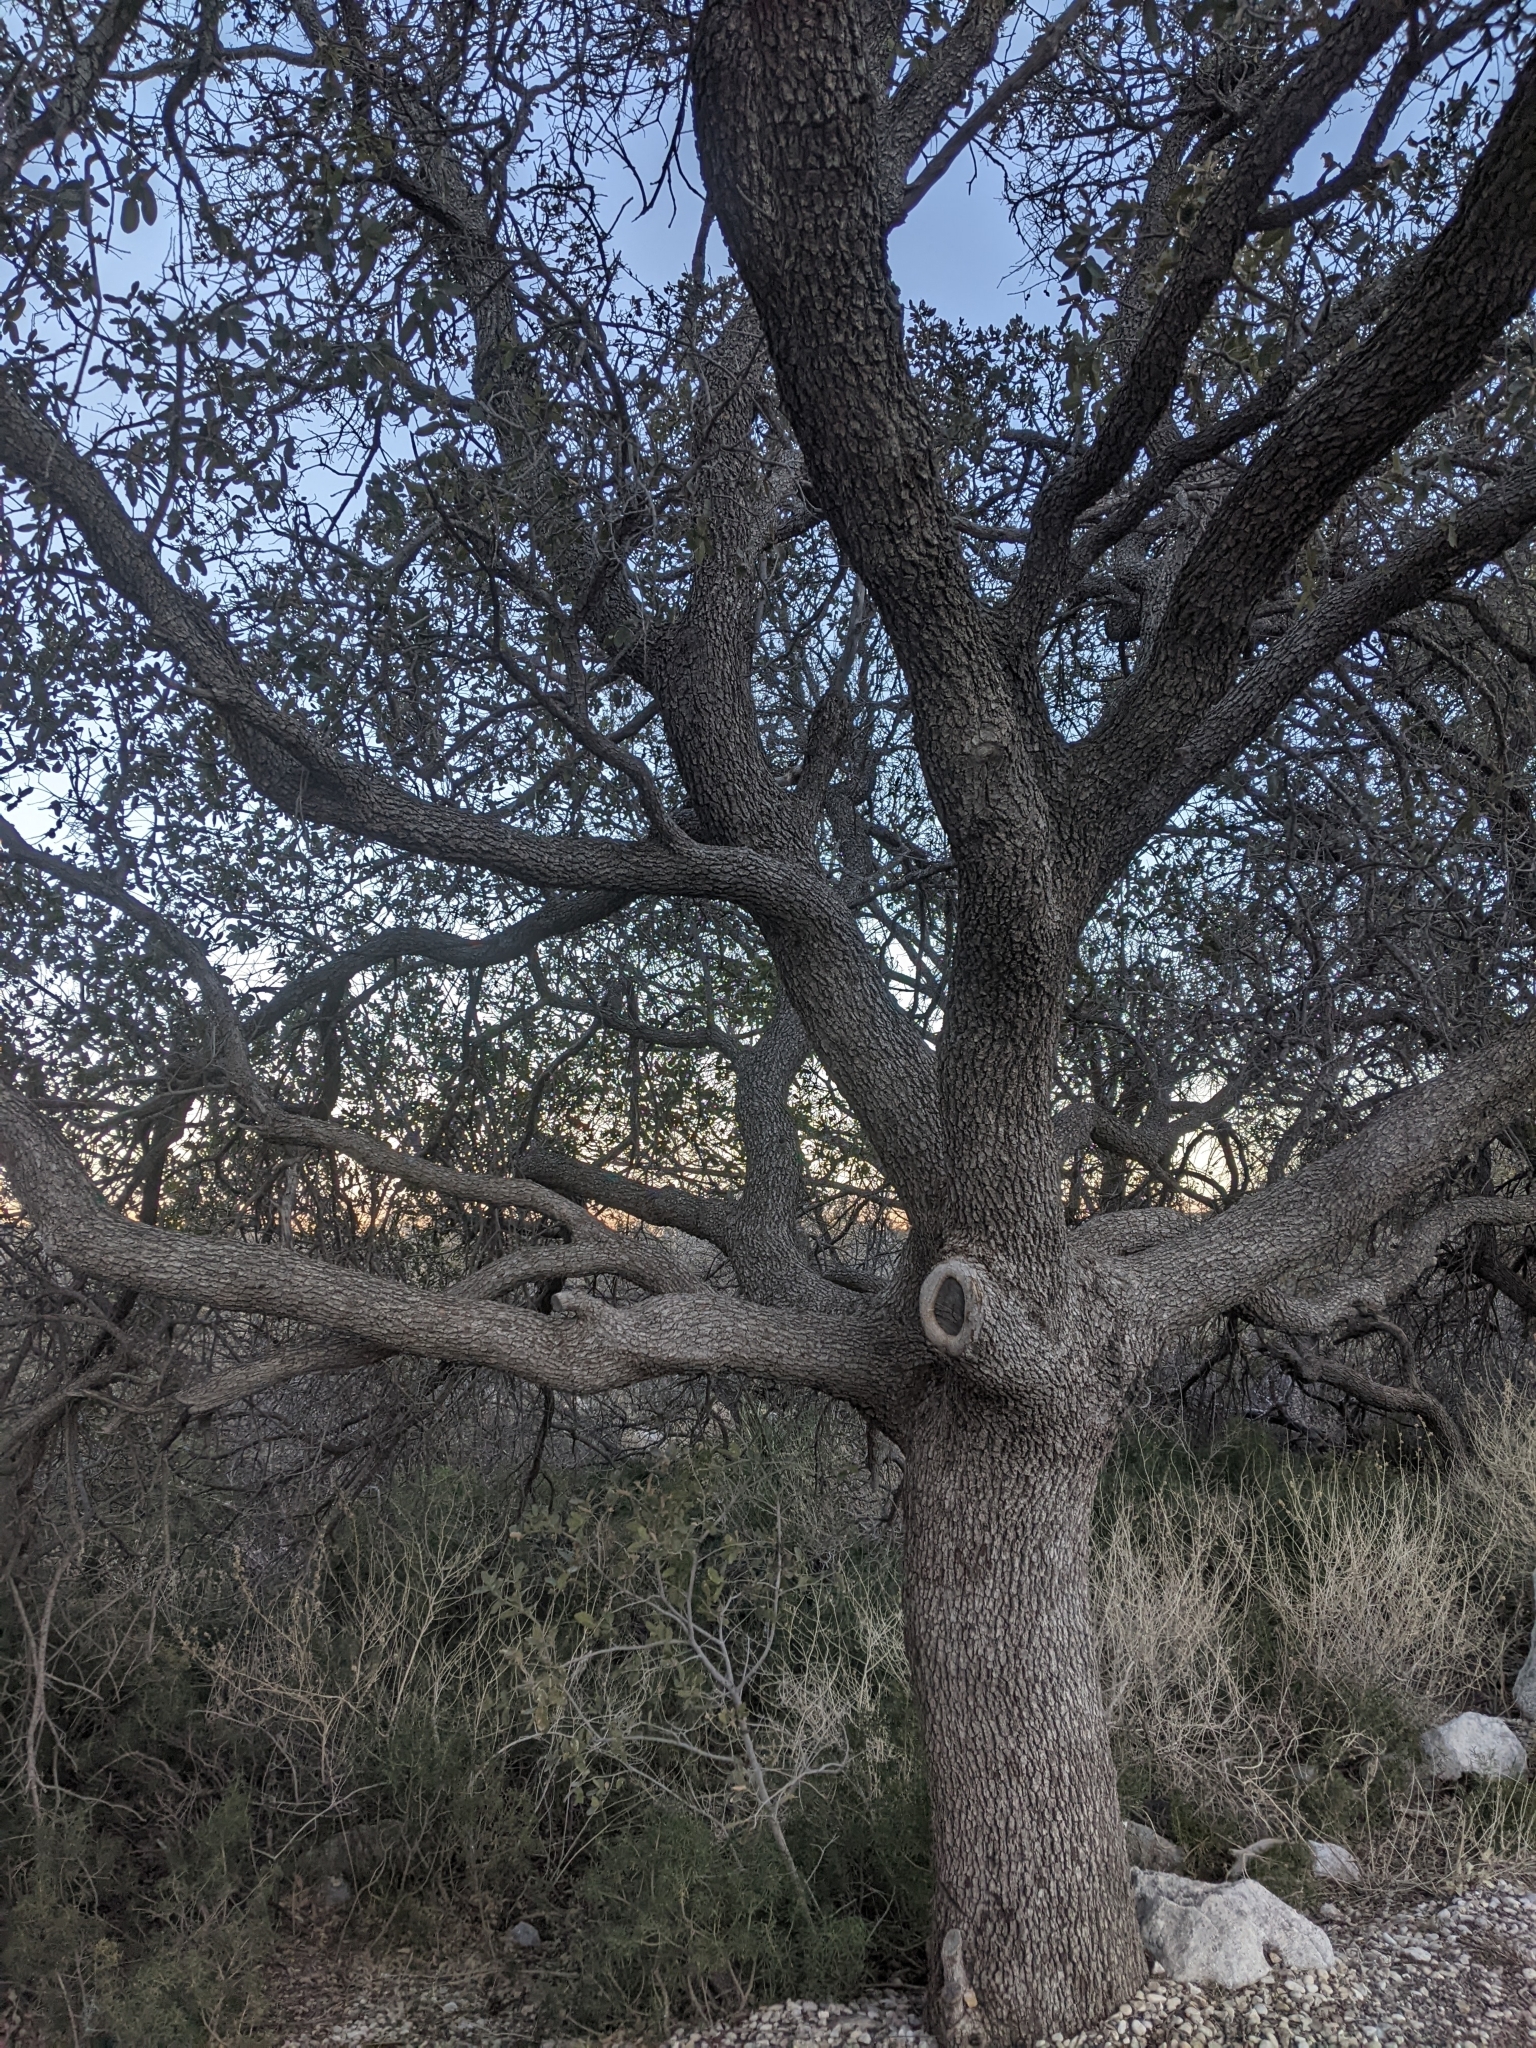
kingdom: Plantae
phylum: Tracheophyta
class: Magnoliopsida
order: Fagales
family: Fagaceae
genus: Quercus
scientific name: Quercus grisea
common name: Gray oak
